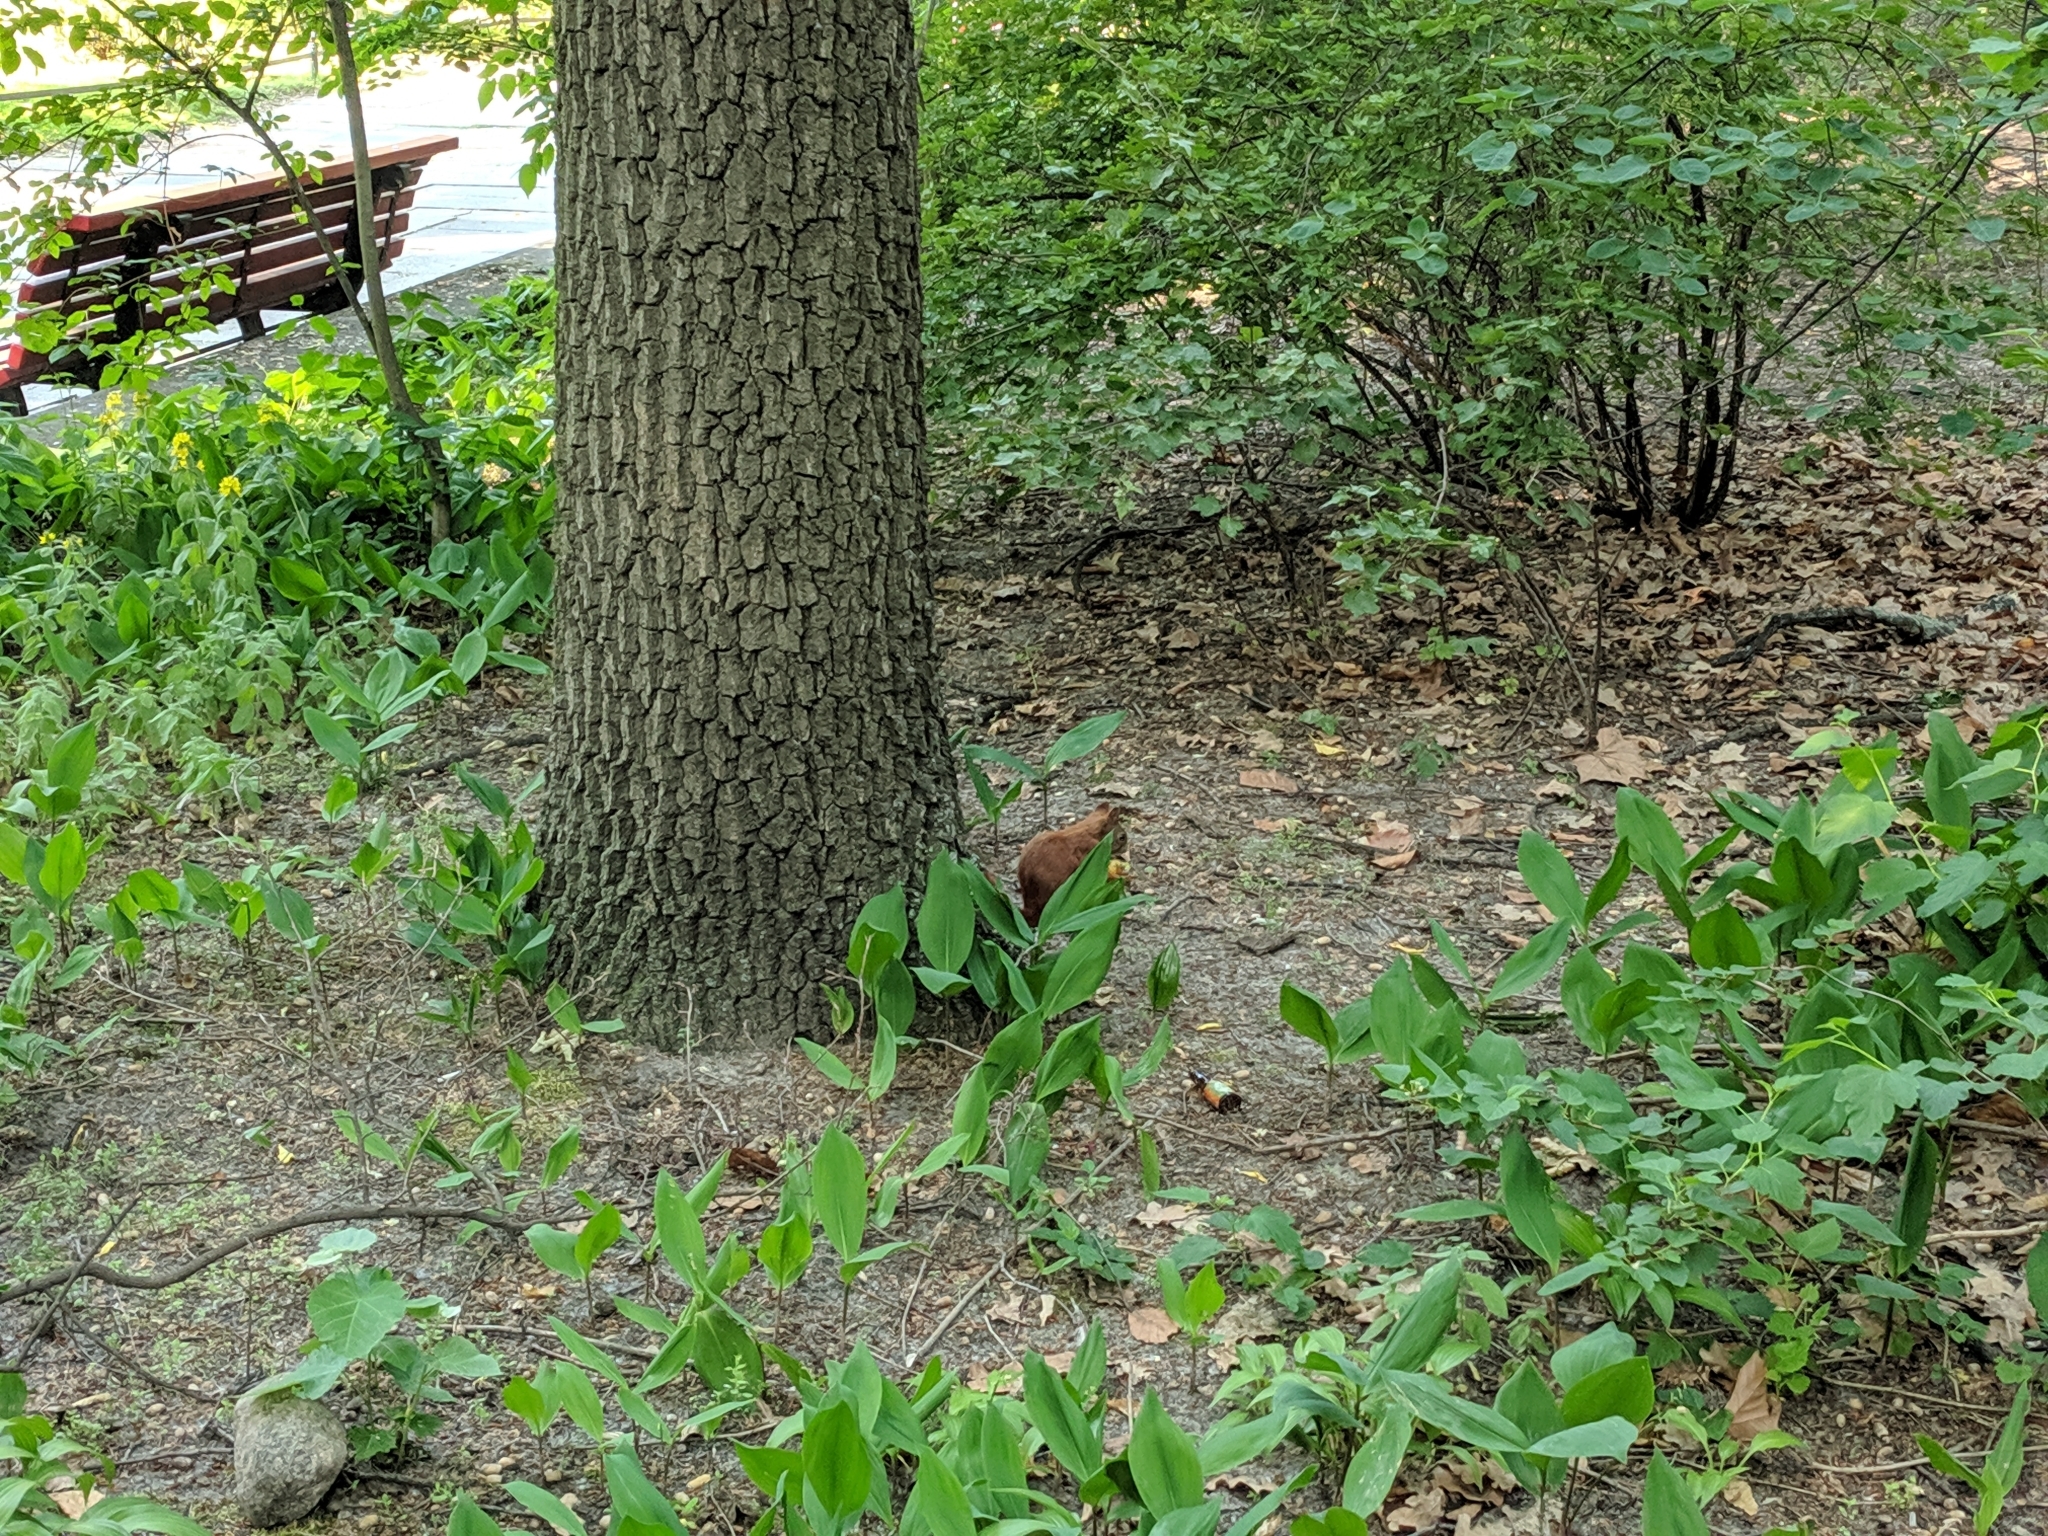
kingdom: Animalia
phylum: Chordata
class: Mammalia
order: Rodentia
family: Sciuridae
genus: Sciurus
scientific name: Sciurus vulgaris
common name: Eurasian red squirrel
